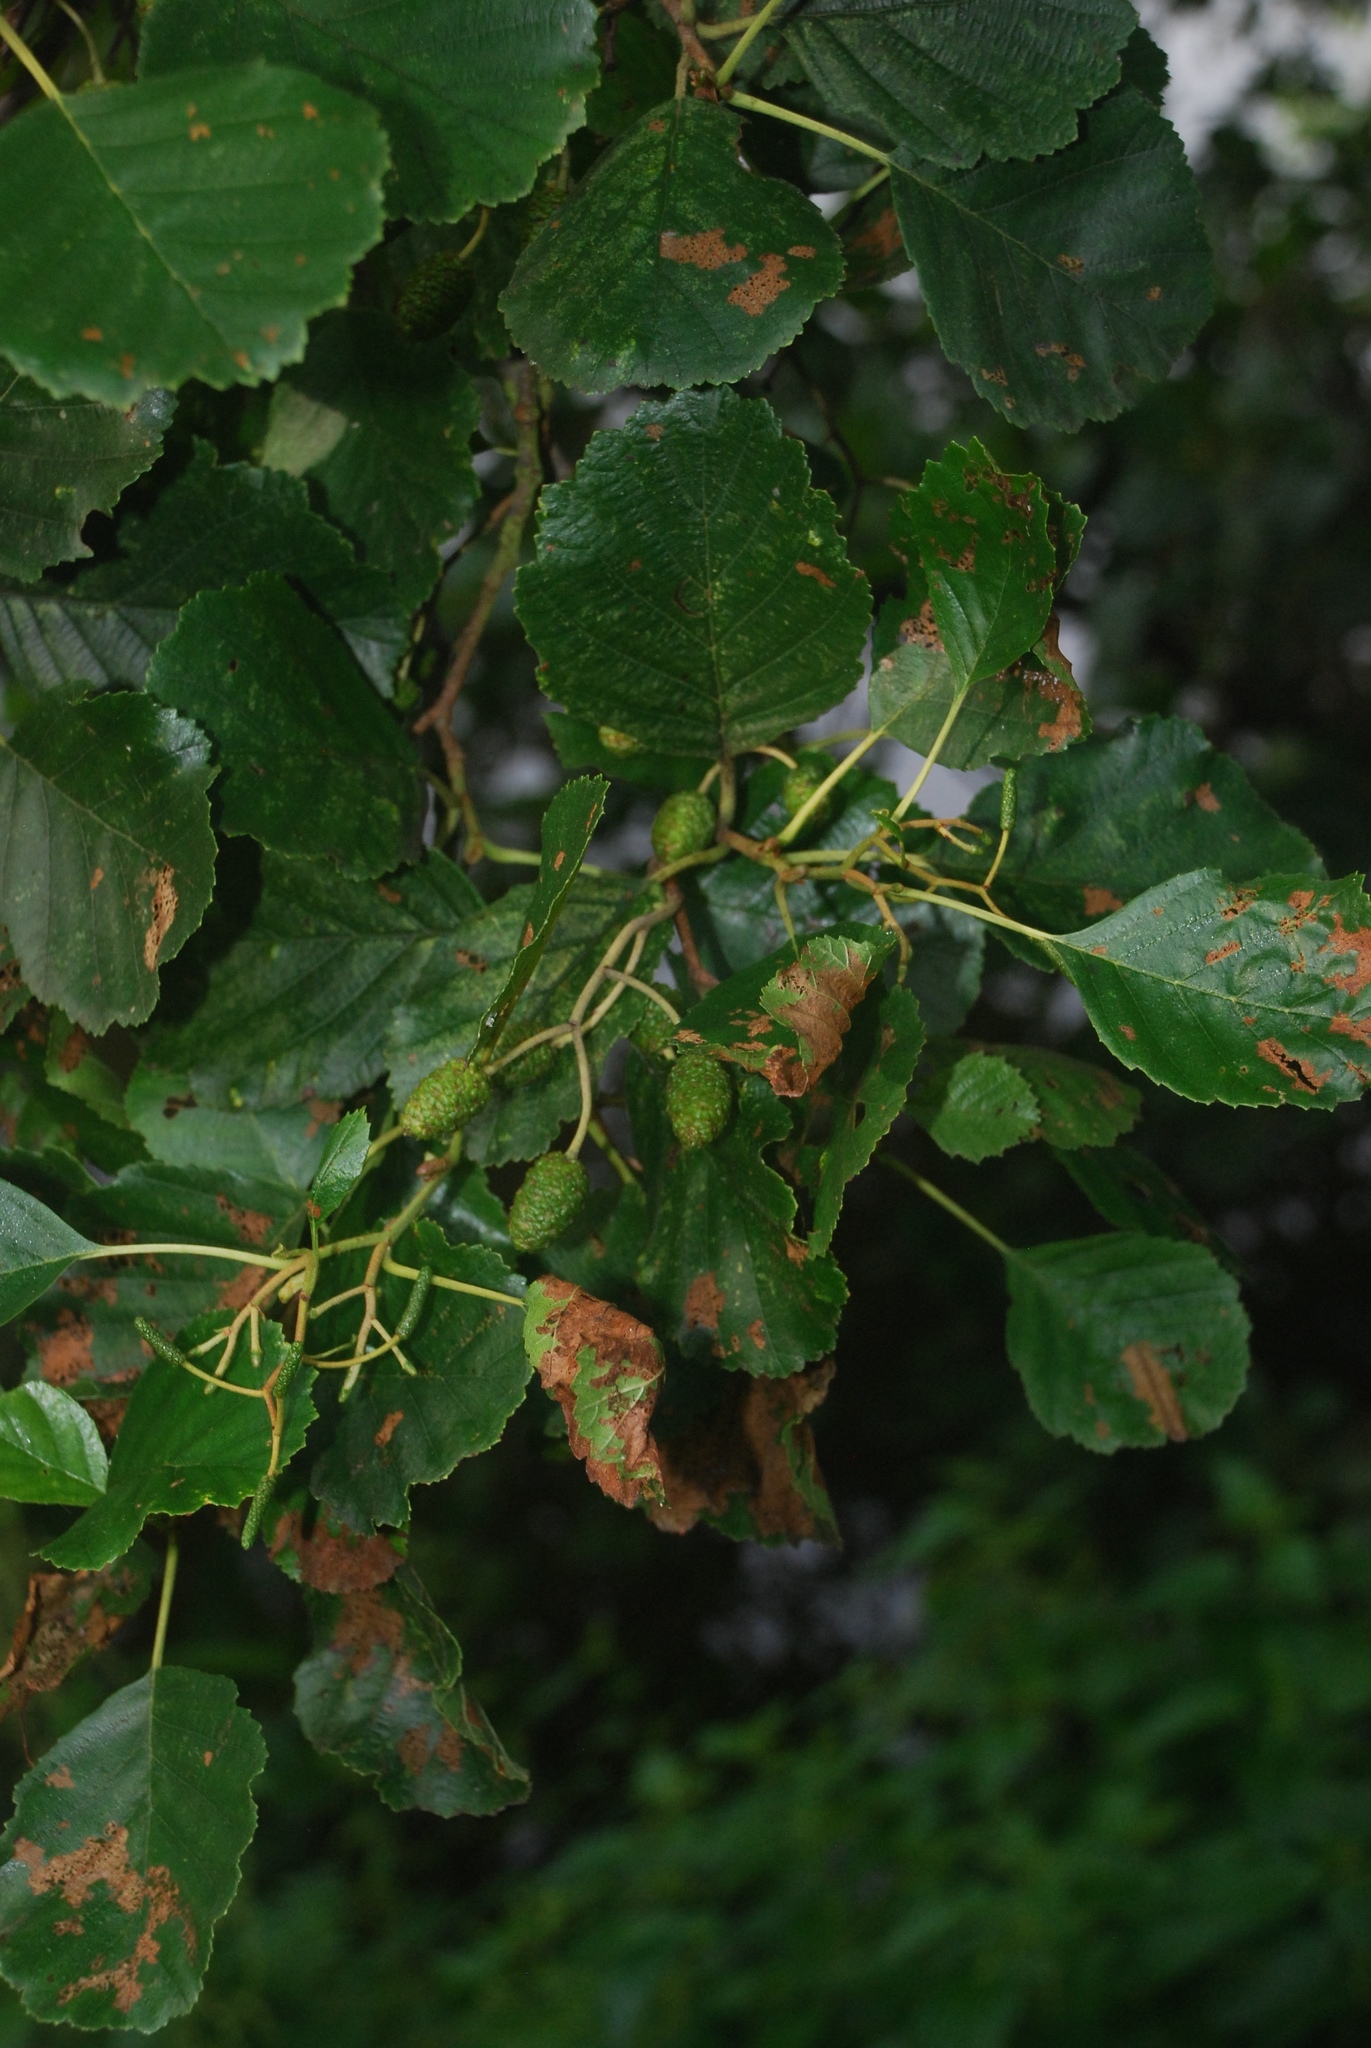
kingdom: Plantae
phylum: Tracheophyta
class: Magnoliopsida
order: Fagales
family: Betulaceae
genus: Alnus
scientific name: Alnus glutinosa
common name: Black alder
